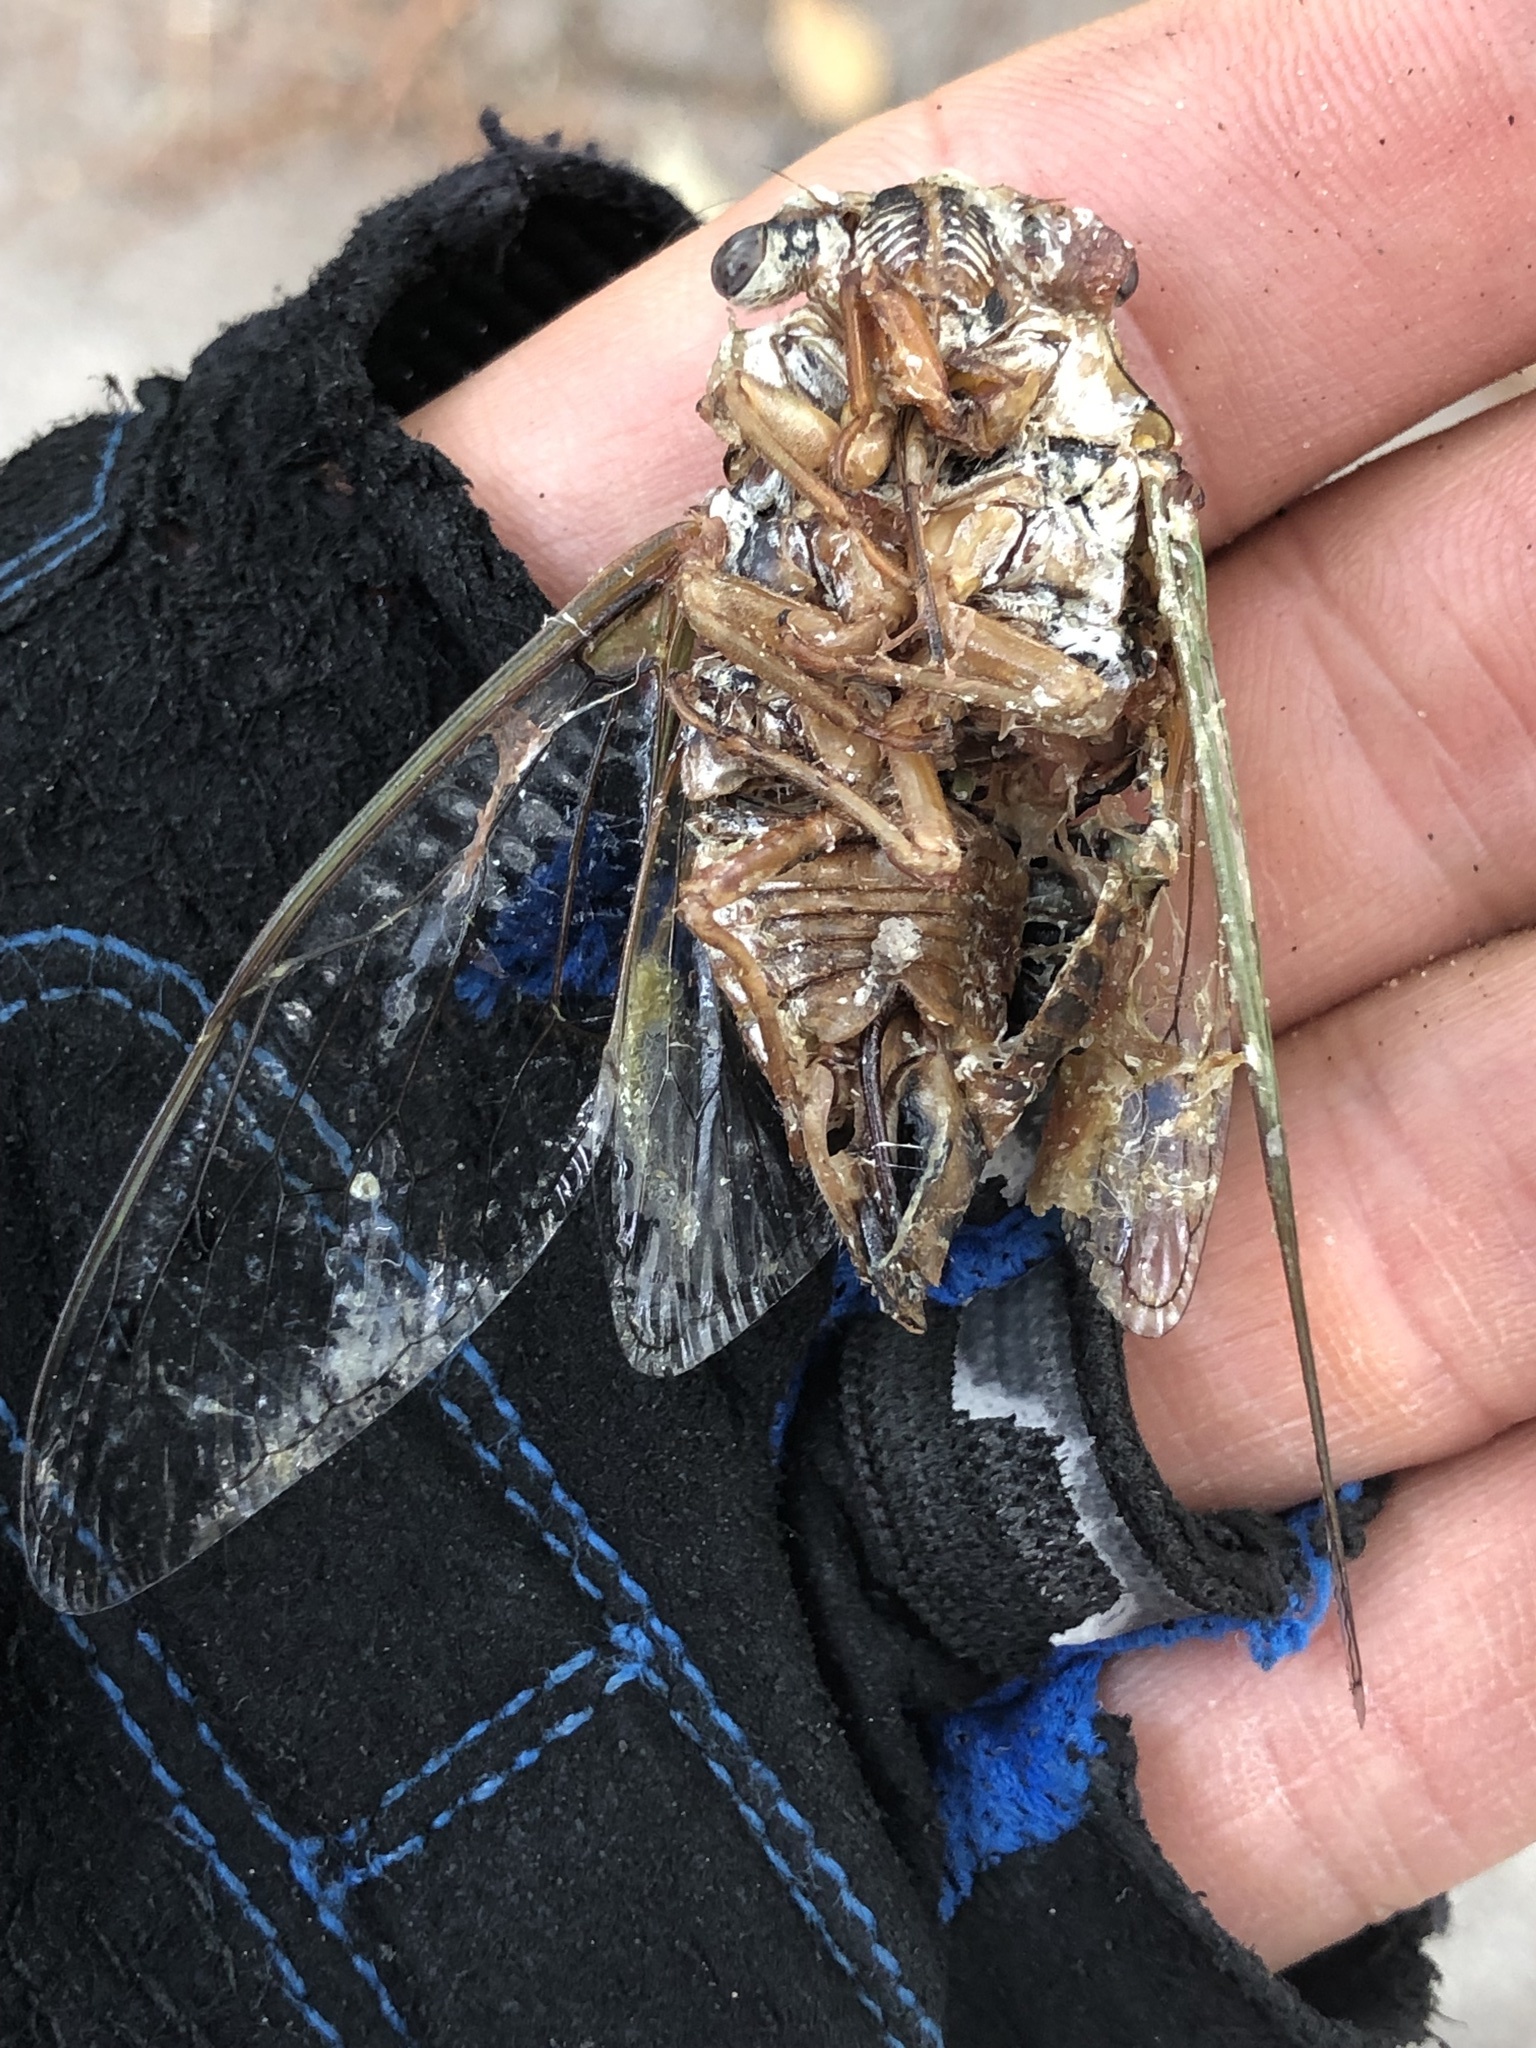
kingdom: Animalia
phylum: Arthropoda
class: Insecta
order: Hemiptera
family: Cicadidae
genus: Megatibicen
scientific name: Megatibicen resh
